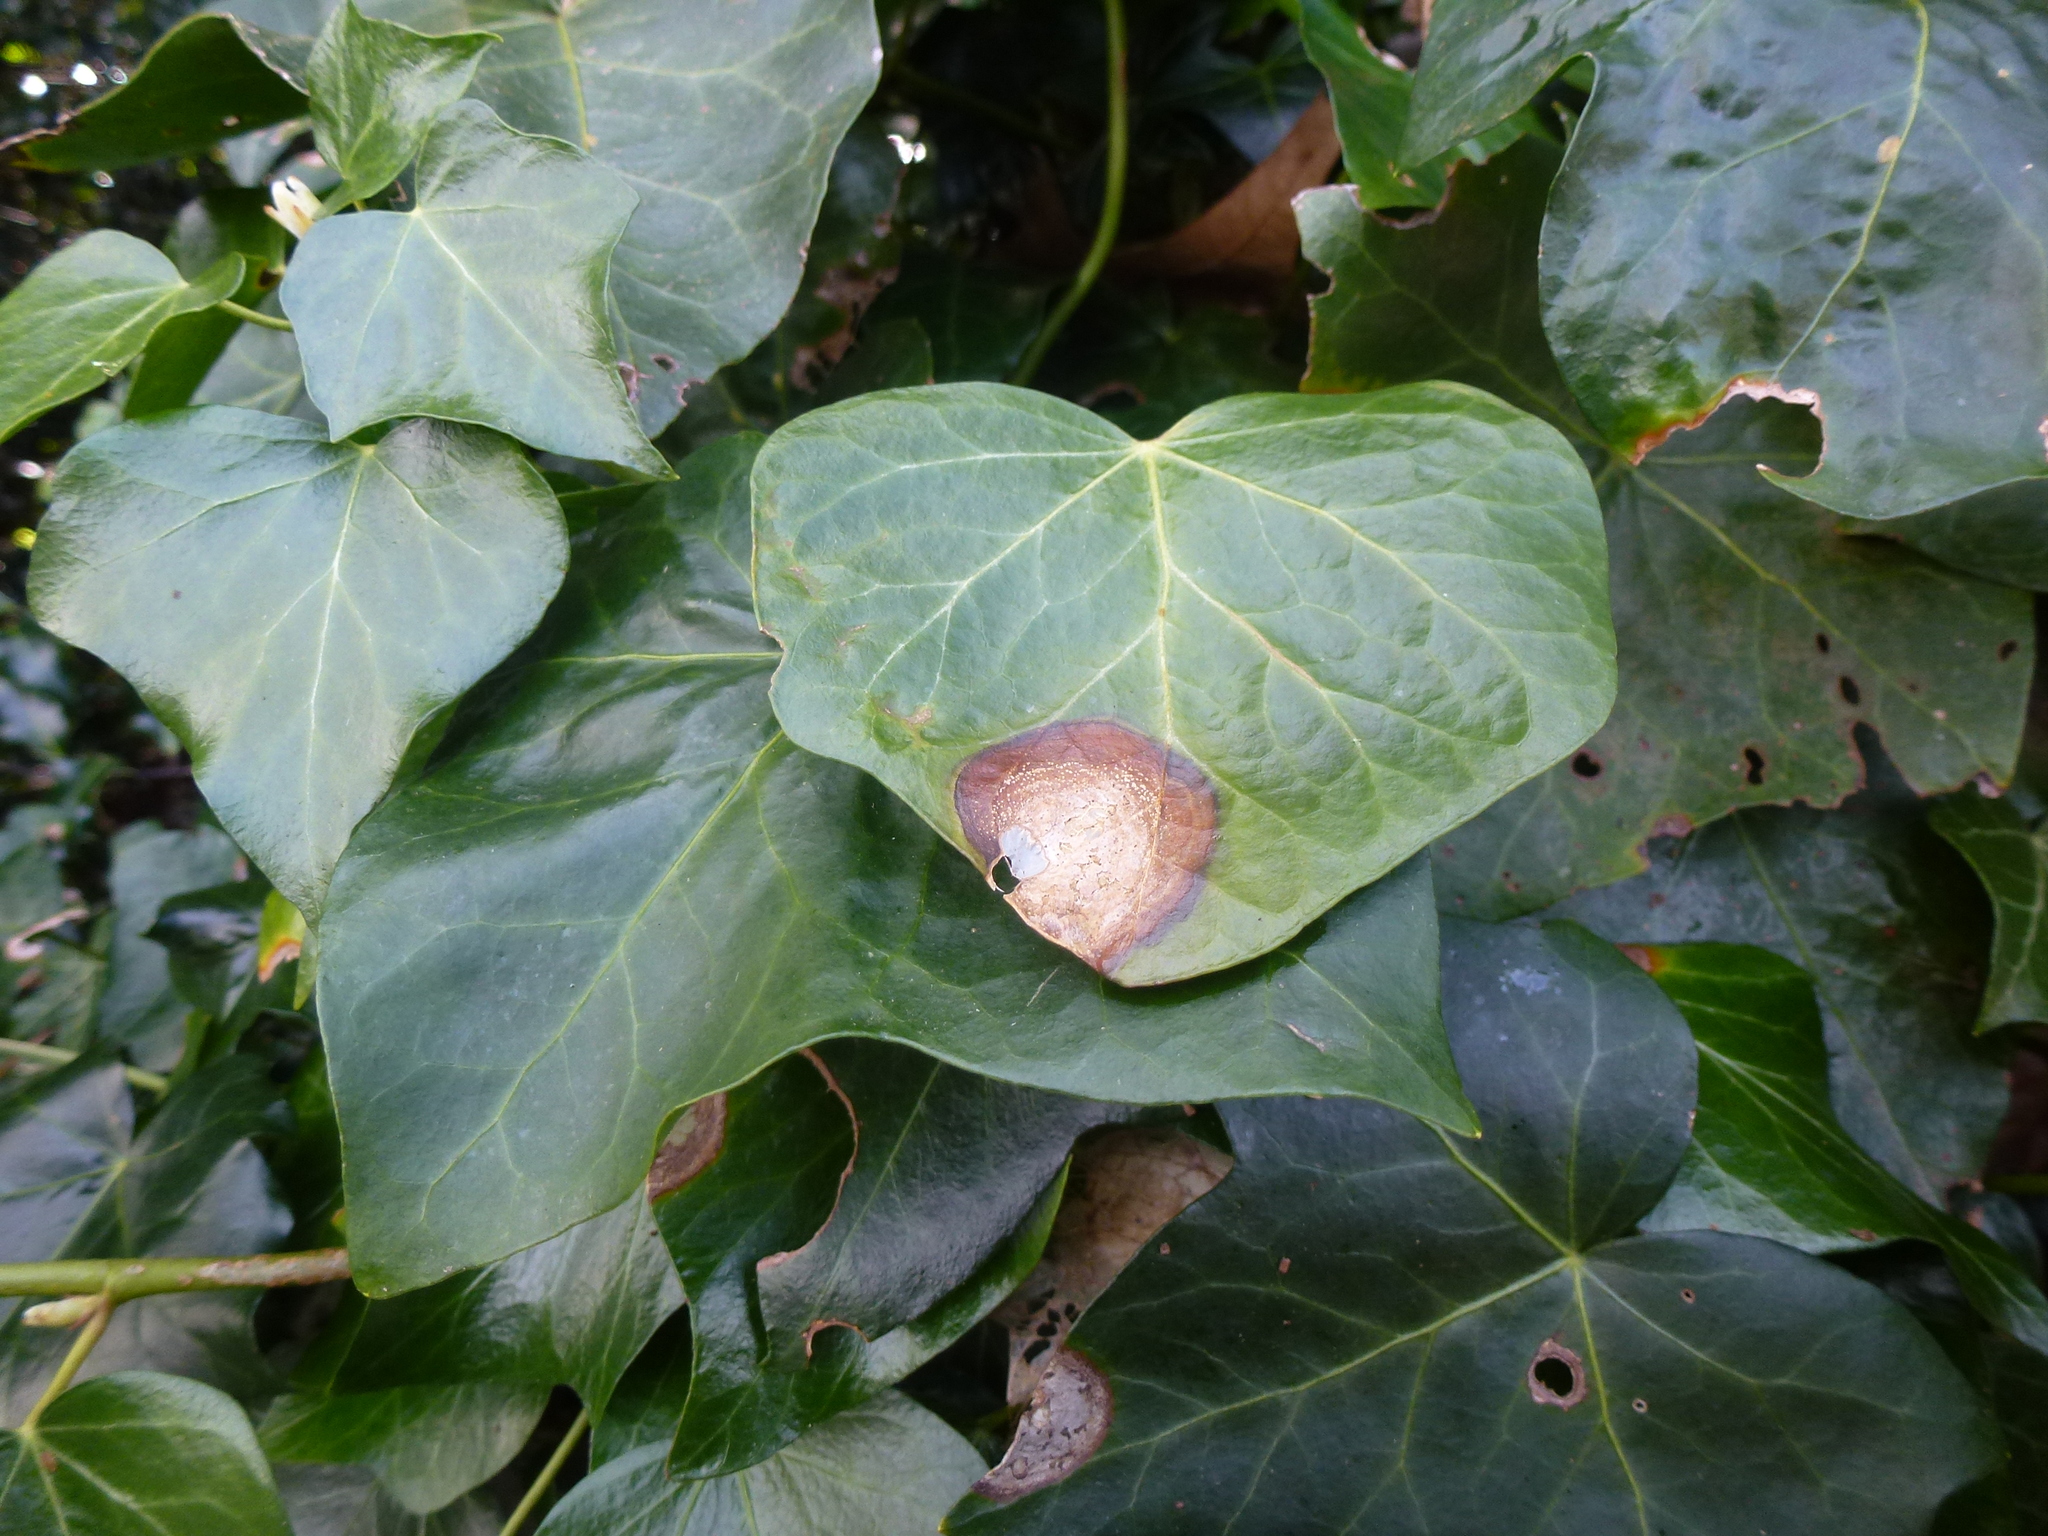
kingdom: Fungi
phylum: Ascomycota
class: Dothideomycetes
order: Pleosporales
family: Didymellaceae
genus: Boeremia
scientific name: Boeremia hedericola
